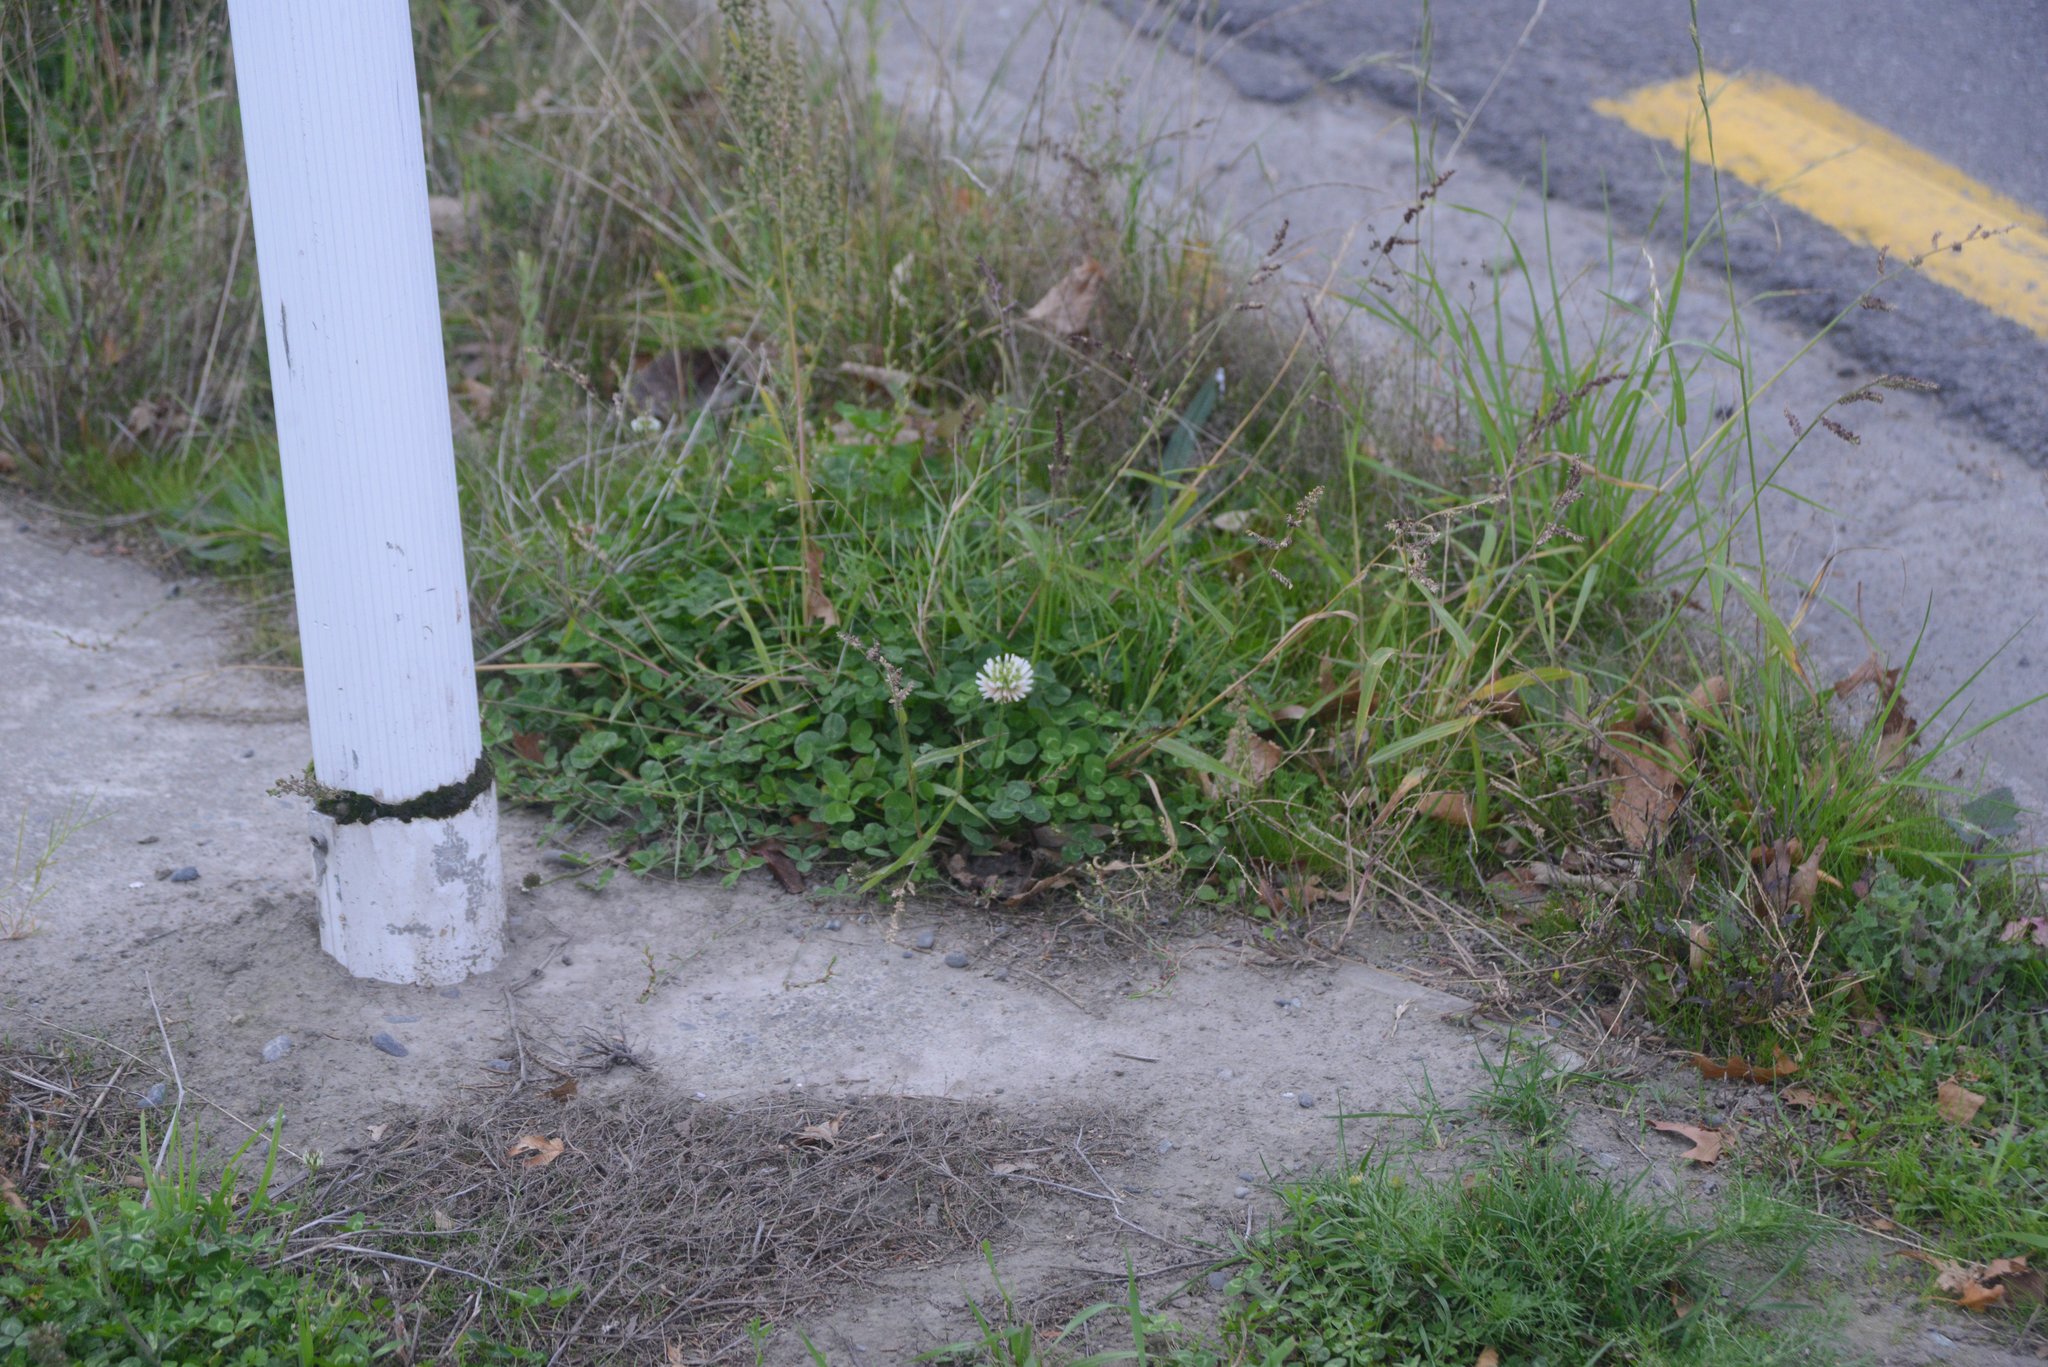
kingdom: Plantae
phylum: Tracheophyta
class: Magnoliopsida
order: Fabales
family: Fabaceae
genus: Trifolium
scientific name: Trifolium repens
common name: White clover
